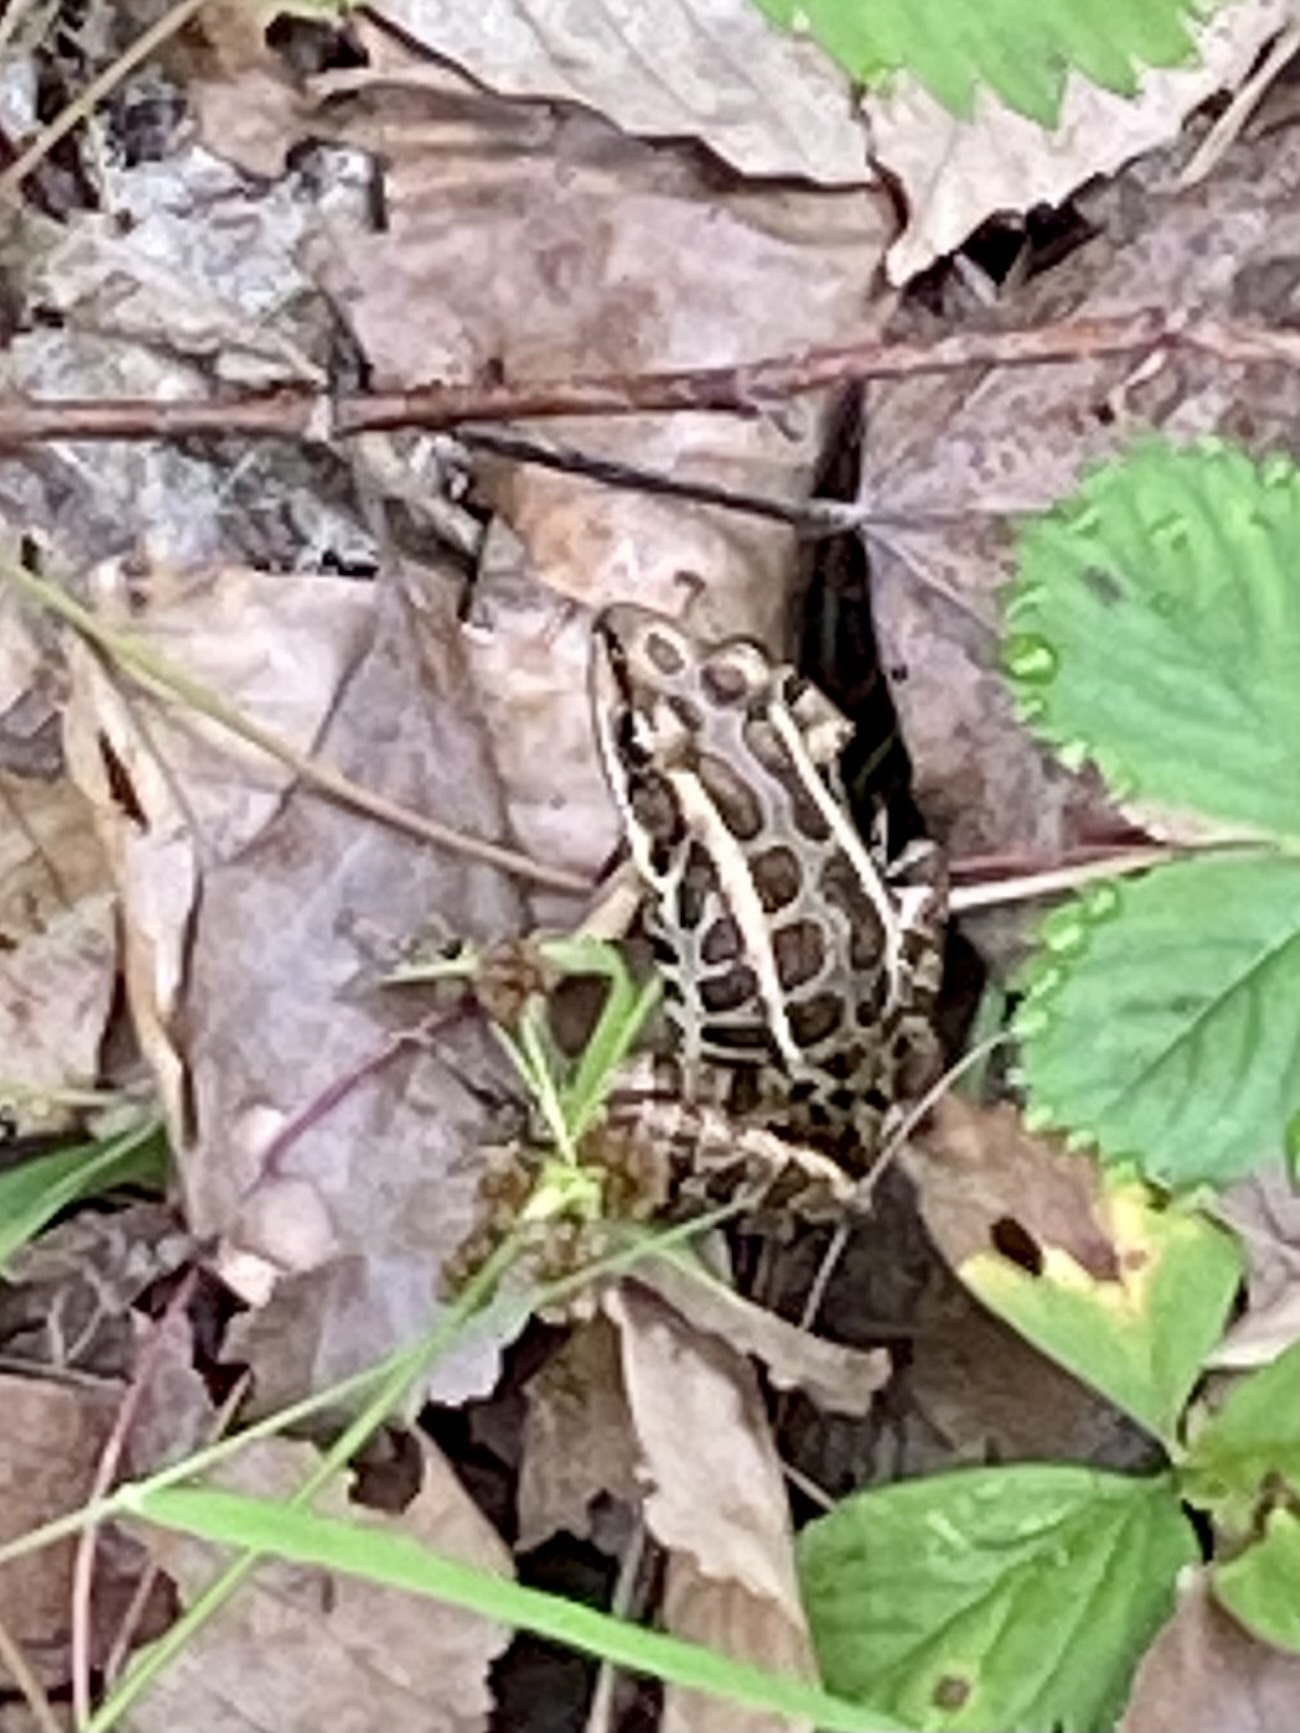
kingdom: Animalia
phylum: Chordata
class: Amphibia
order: Anura
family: Ranidae
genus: Lithobates
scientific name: Lithobates palustris
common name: Pickerel frog
